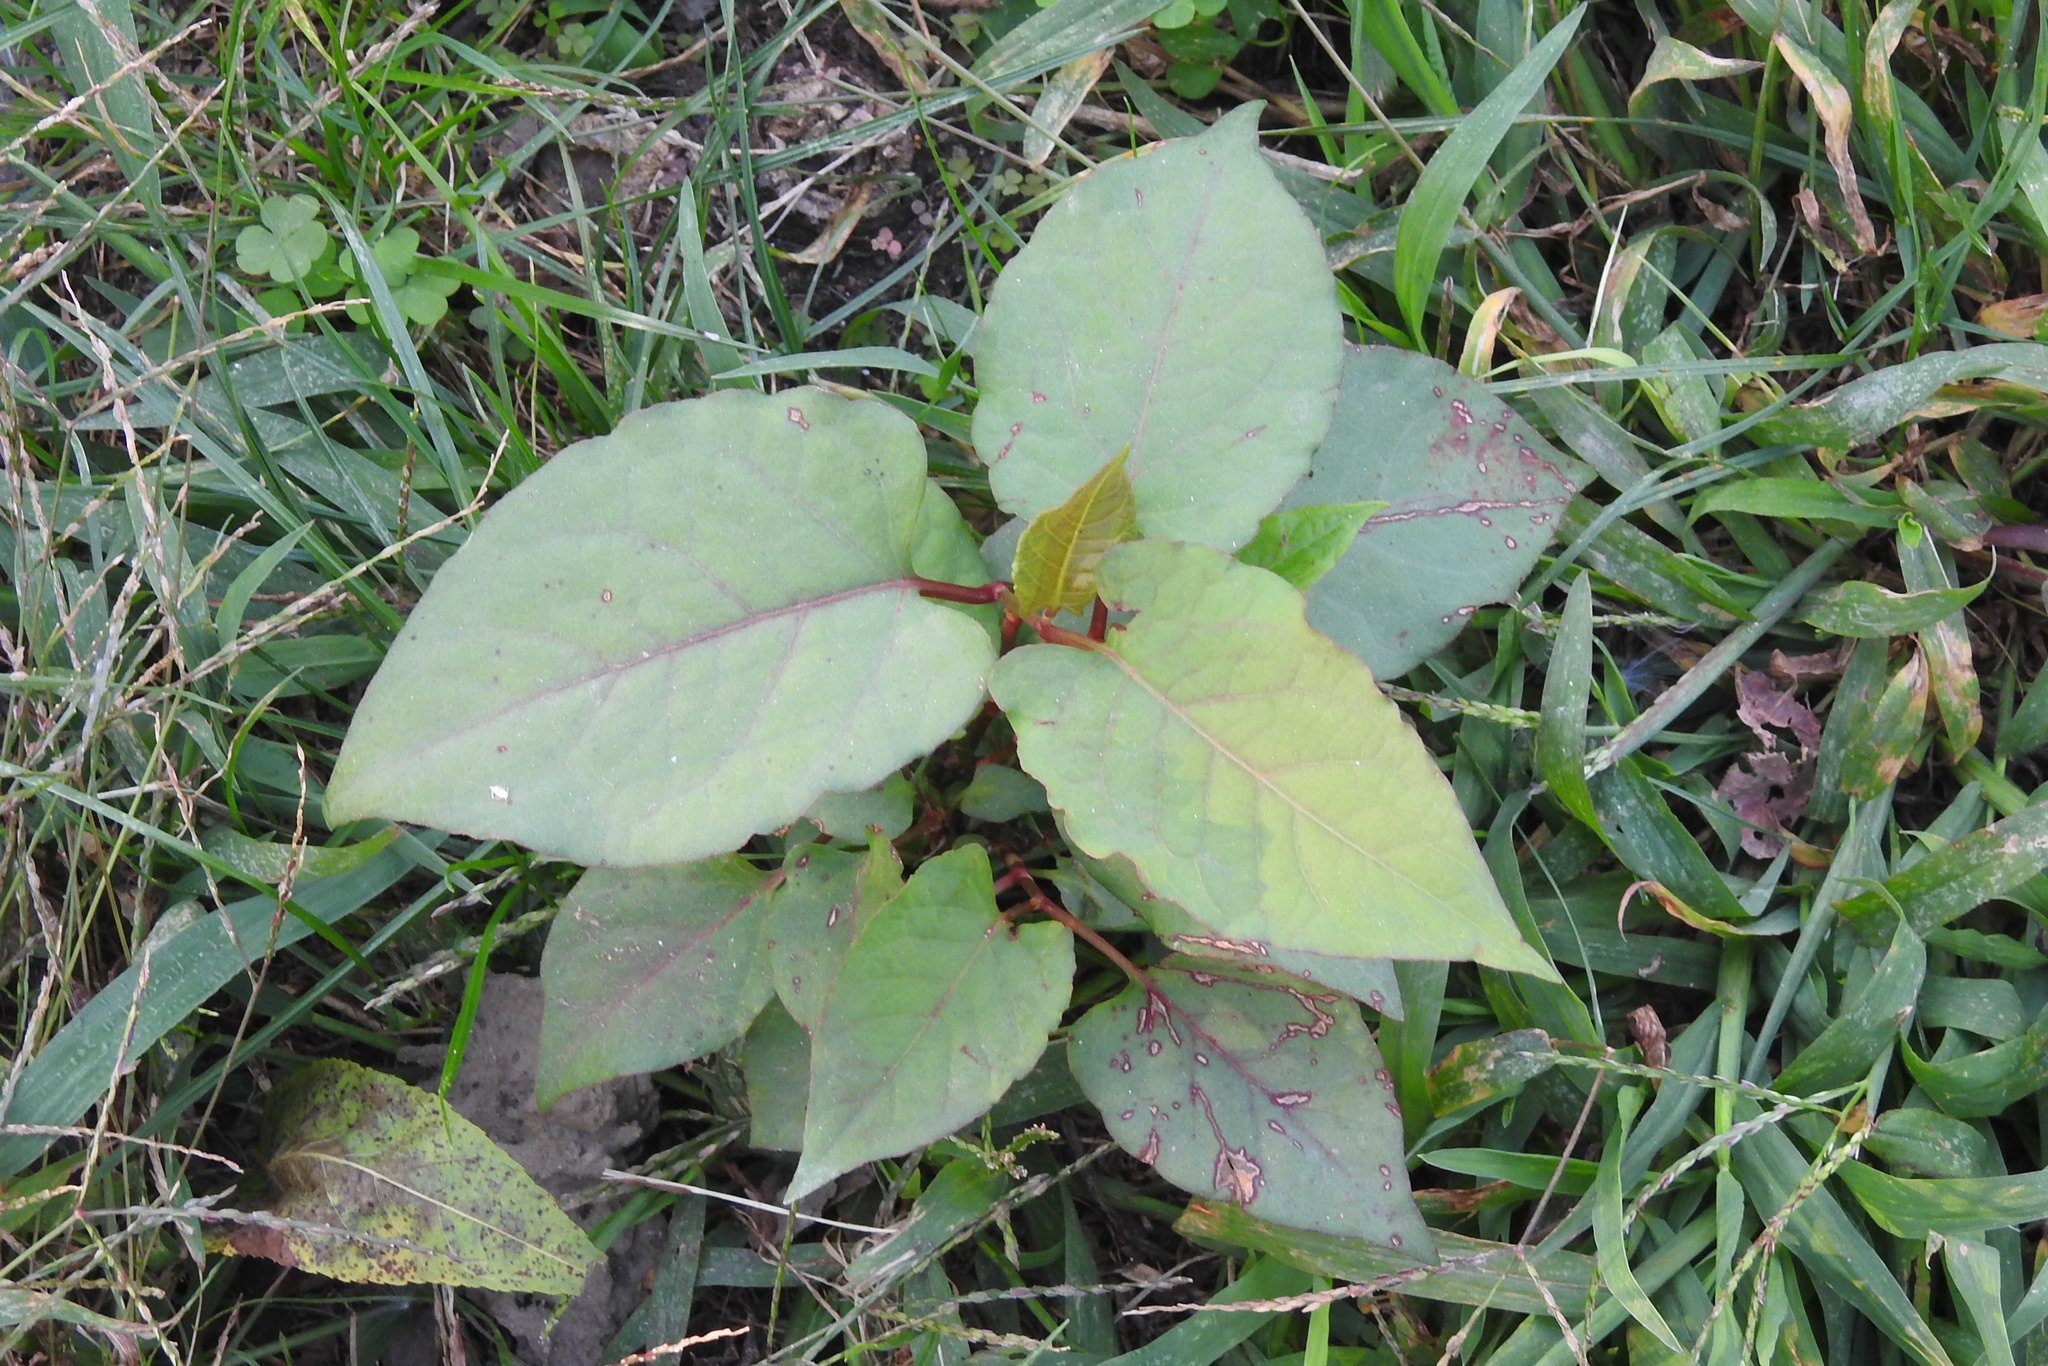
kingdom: Plantae
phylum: Tracheophyta
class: Magnoliopsida
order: Caryophyllales
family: Polygonaceae
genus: Reynoutria
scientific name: Reynoutria japonica
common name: Japanese knotweed
